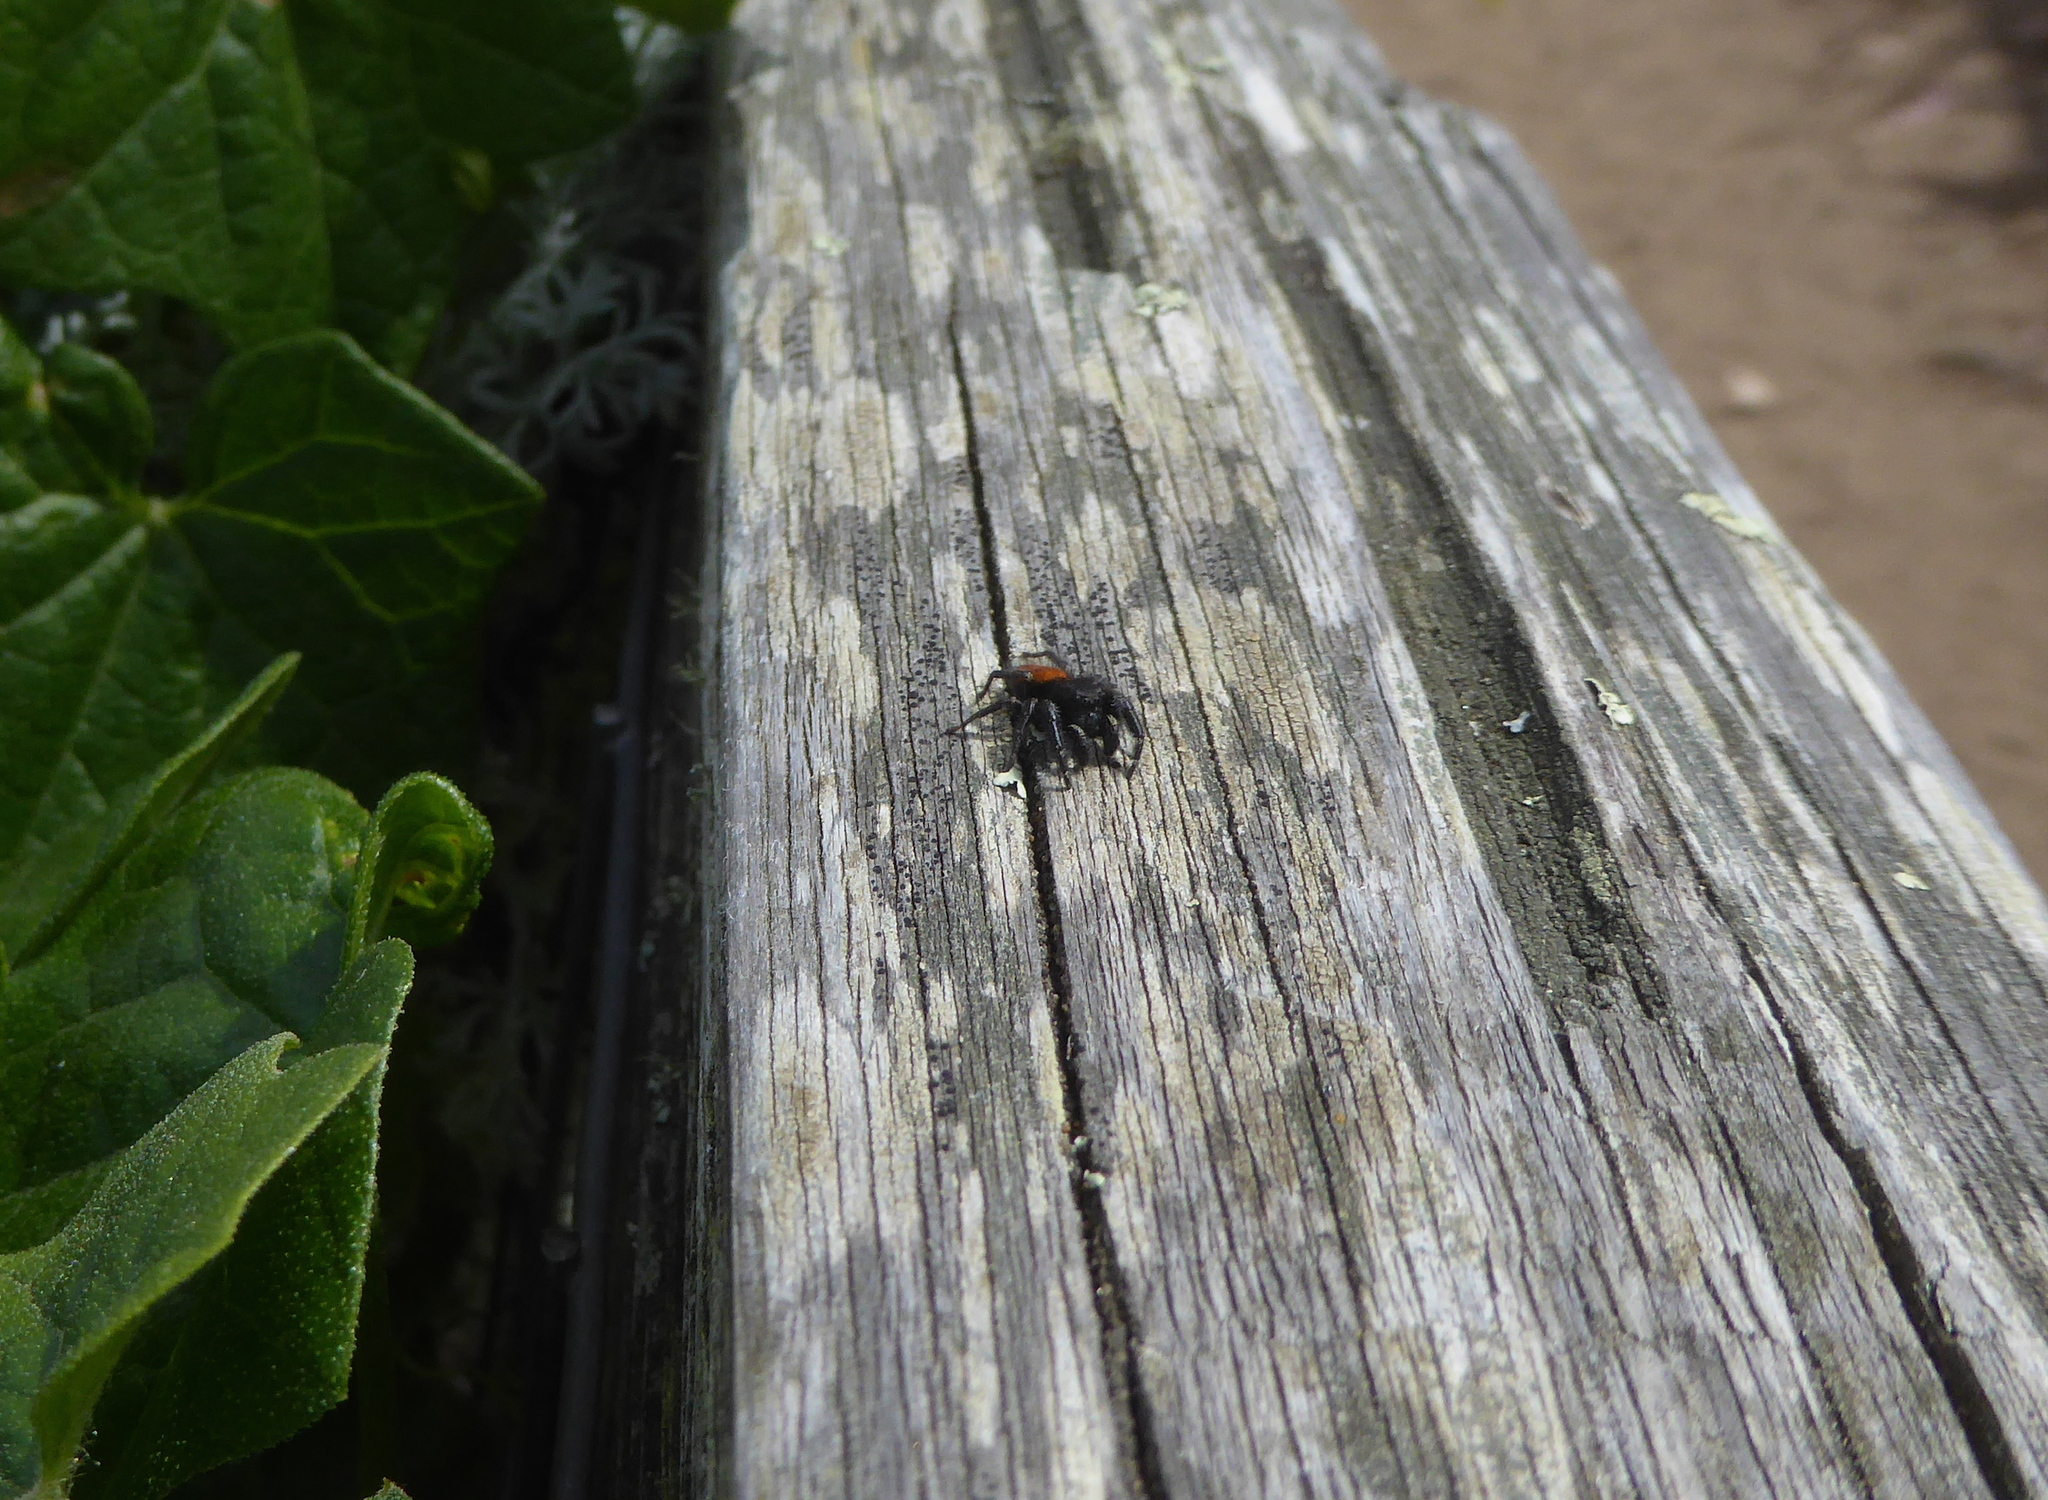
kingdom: Animalia
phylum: Arthropoda
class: Arachnida
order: Araneae
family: Salticidae
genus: Phidippus
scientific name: Phidippus johnsoni
